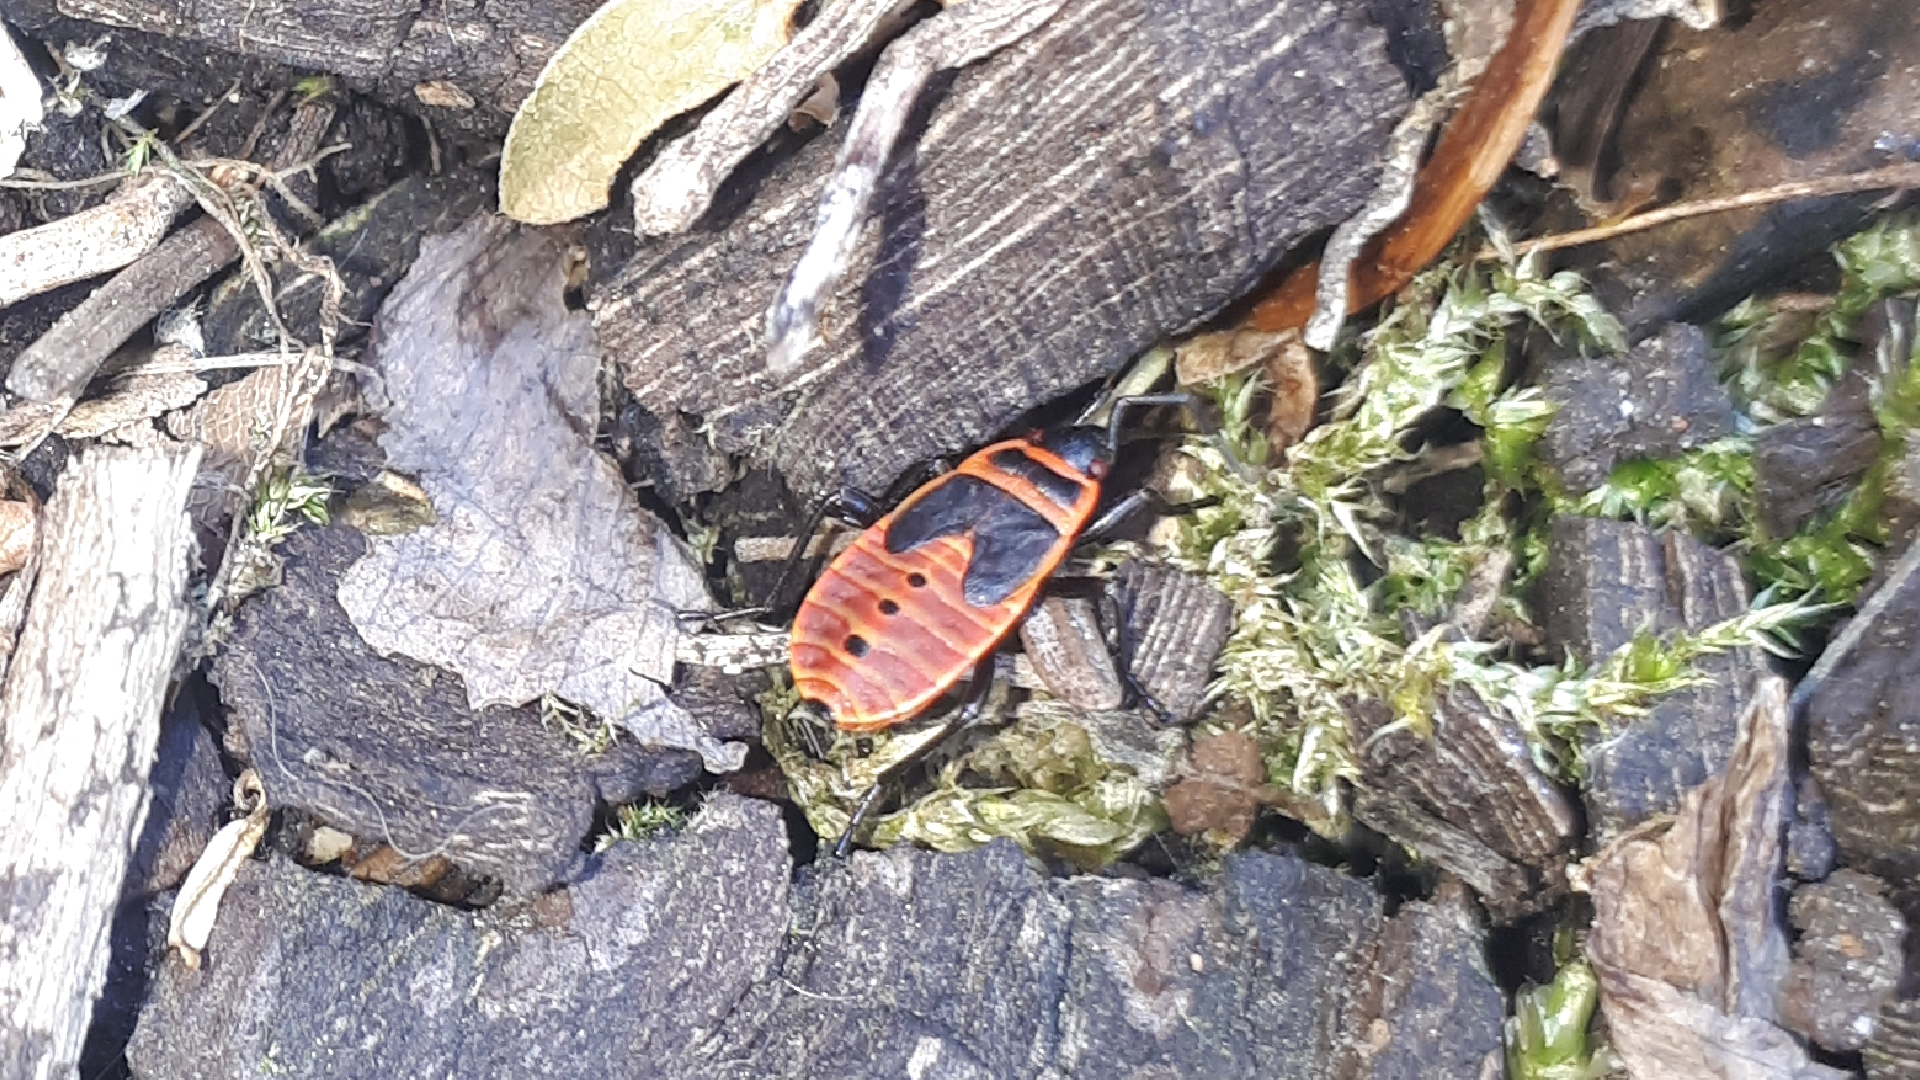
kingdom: Animalia
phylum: Arthropoda
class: Insecta
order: Hemiptera
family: Pyrrhocoridae
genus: Pyrrhocoris
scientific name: Pyrrhocoris apterus
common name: Firebug
